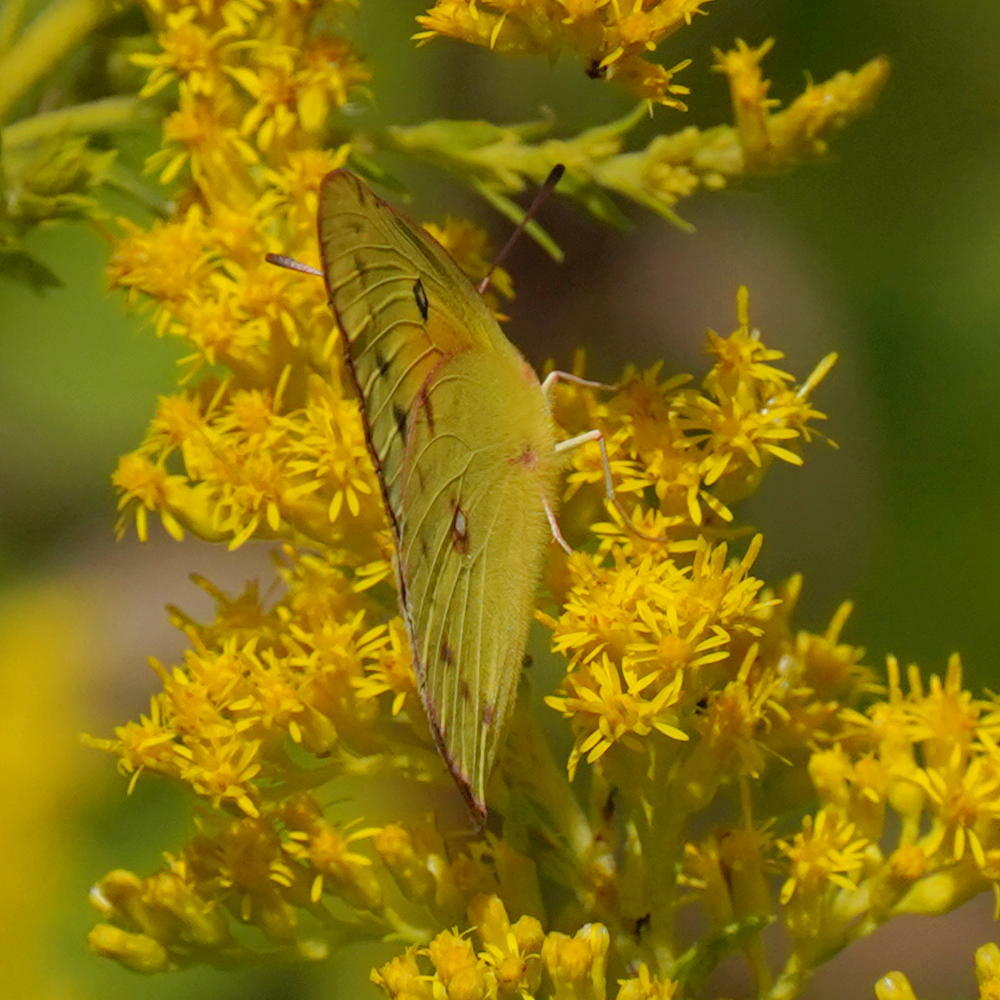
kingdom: Animalia
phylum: Arthropoda
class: Insecta
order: Lepidoptera
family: Pieridae
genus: Colias
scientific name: Colias eurytheme
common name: Alfalfa butterfly
